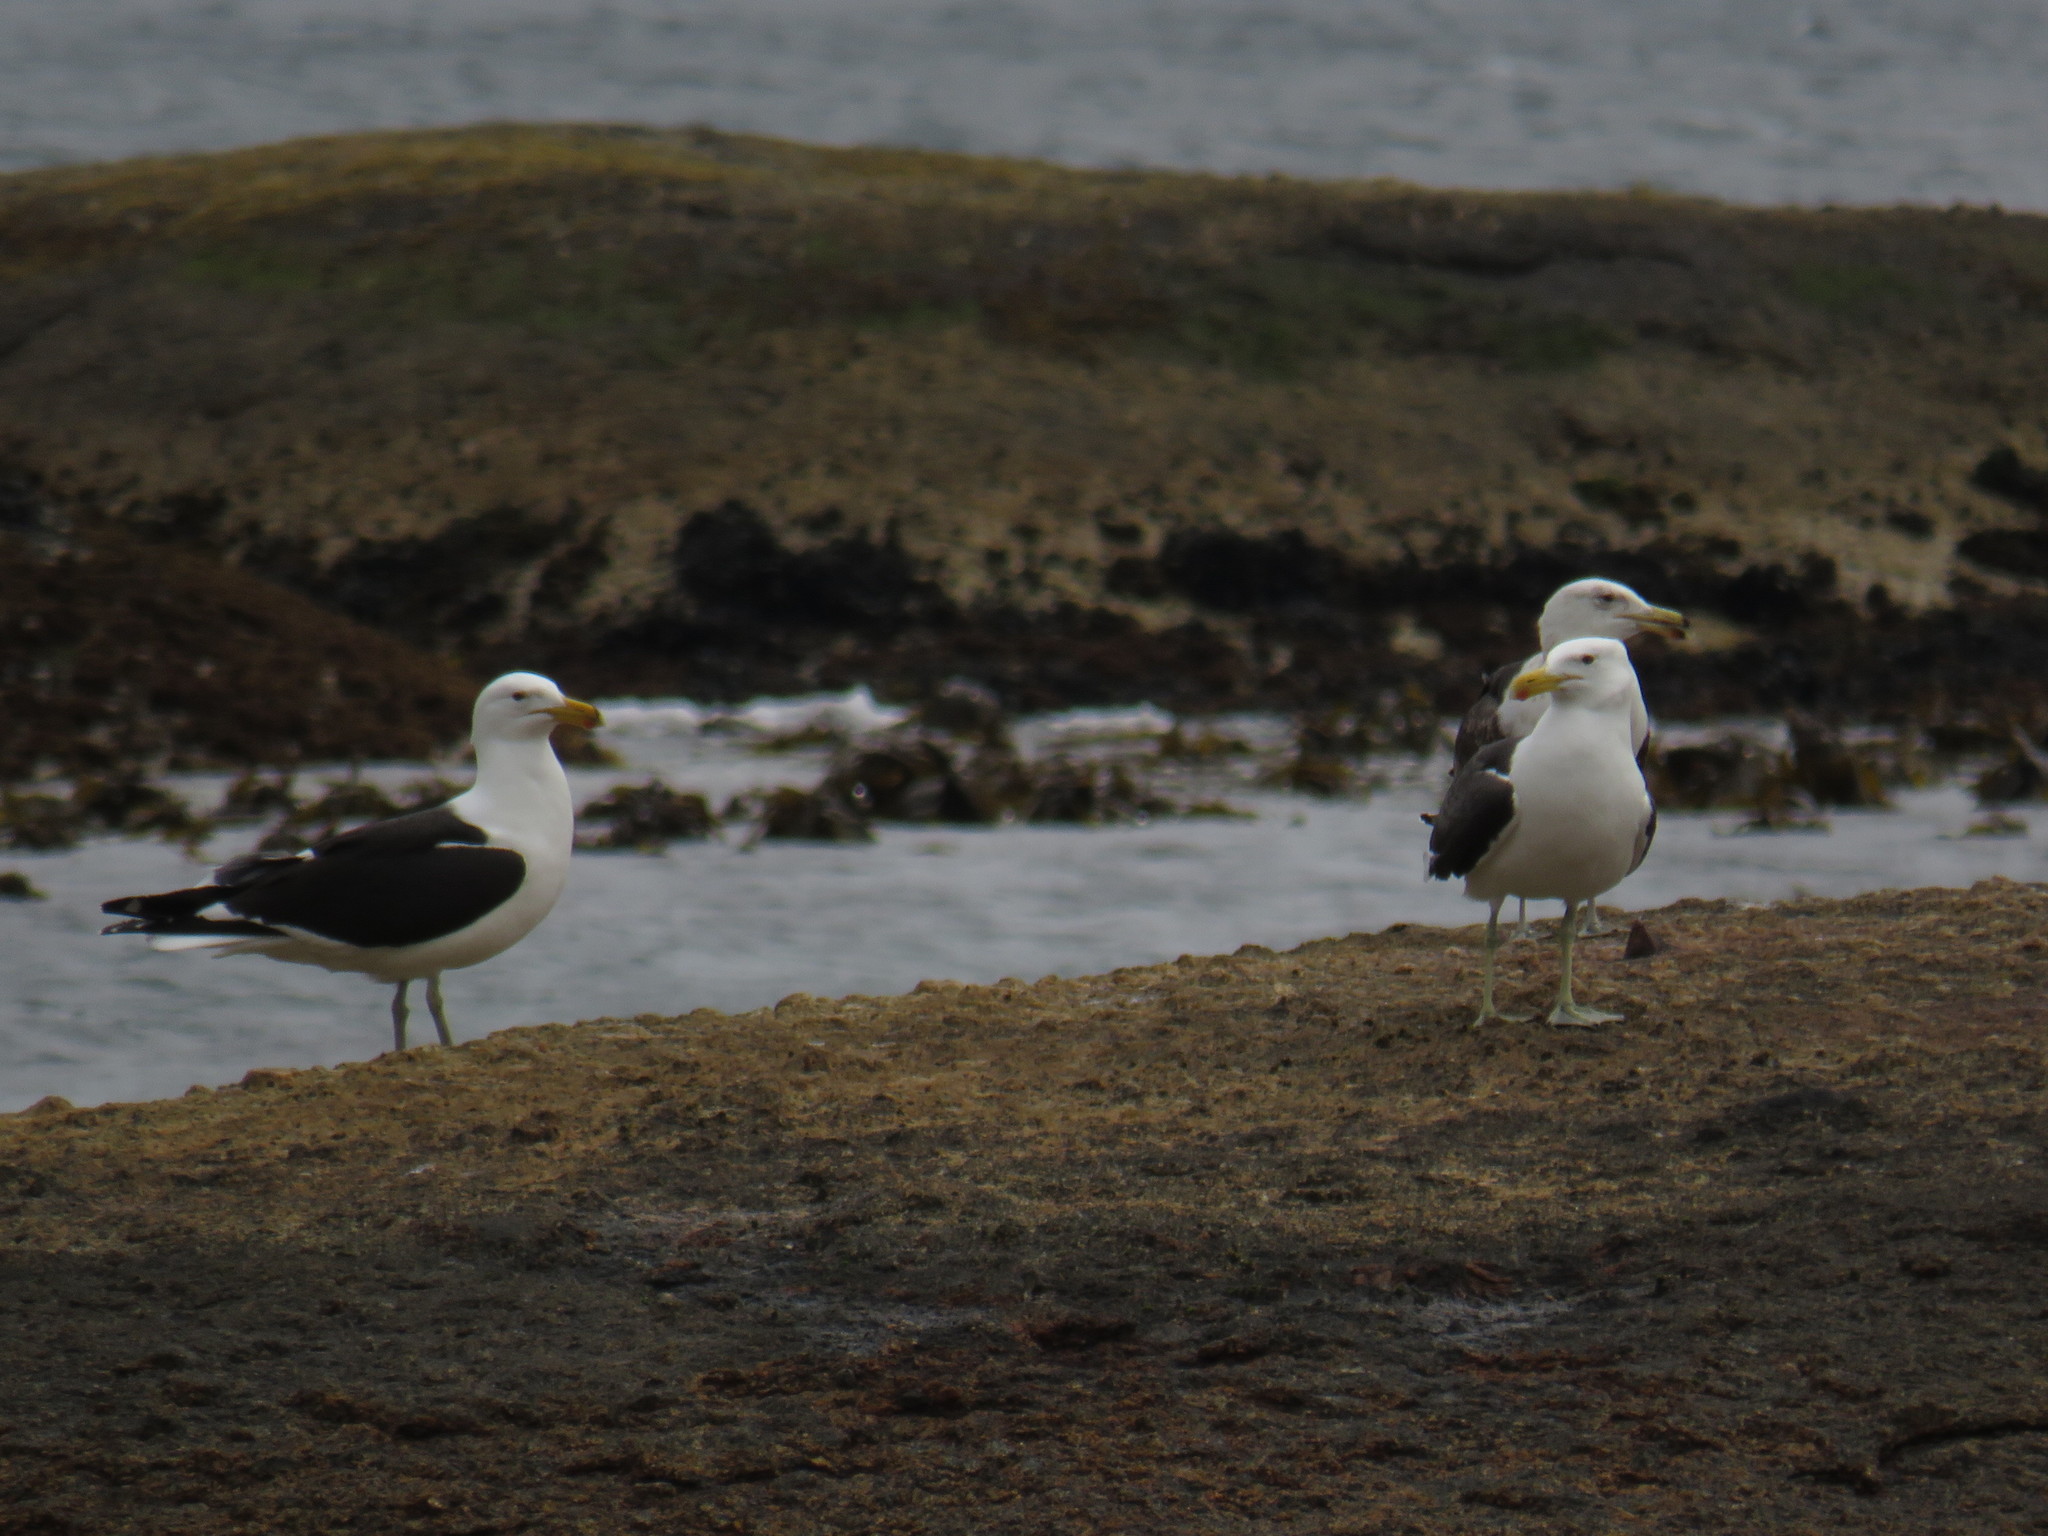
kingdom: Animalia
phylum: Chordata
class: Aves
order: Charadriiformes
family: Laridae
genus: Larus
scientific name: Larus dominicanus
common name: Kelp gull
